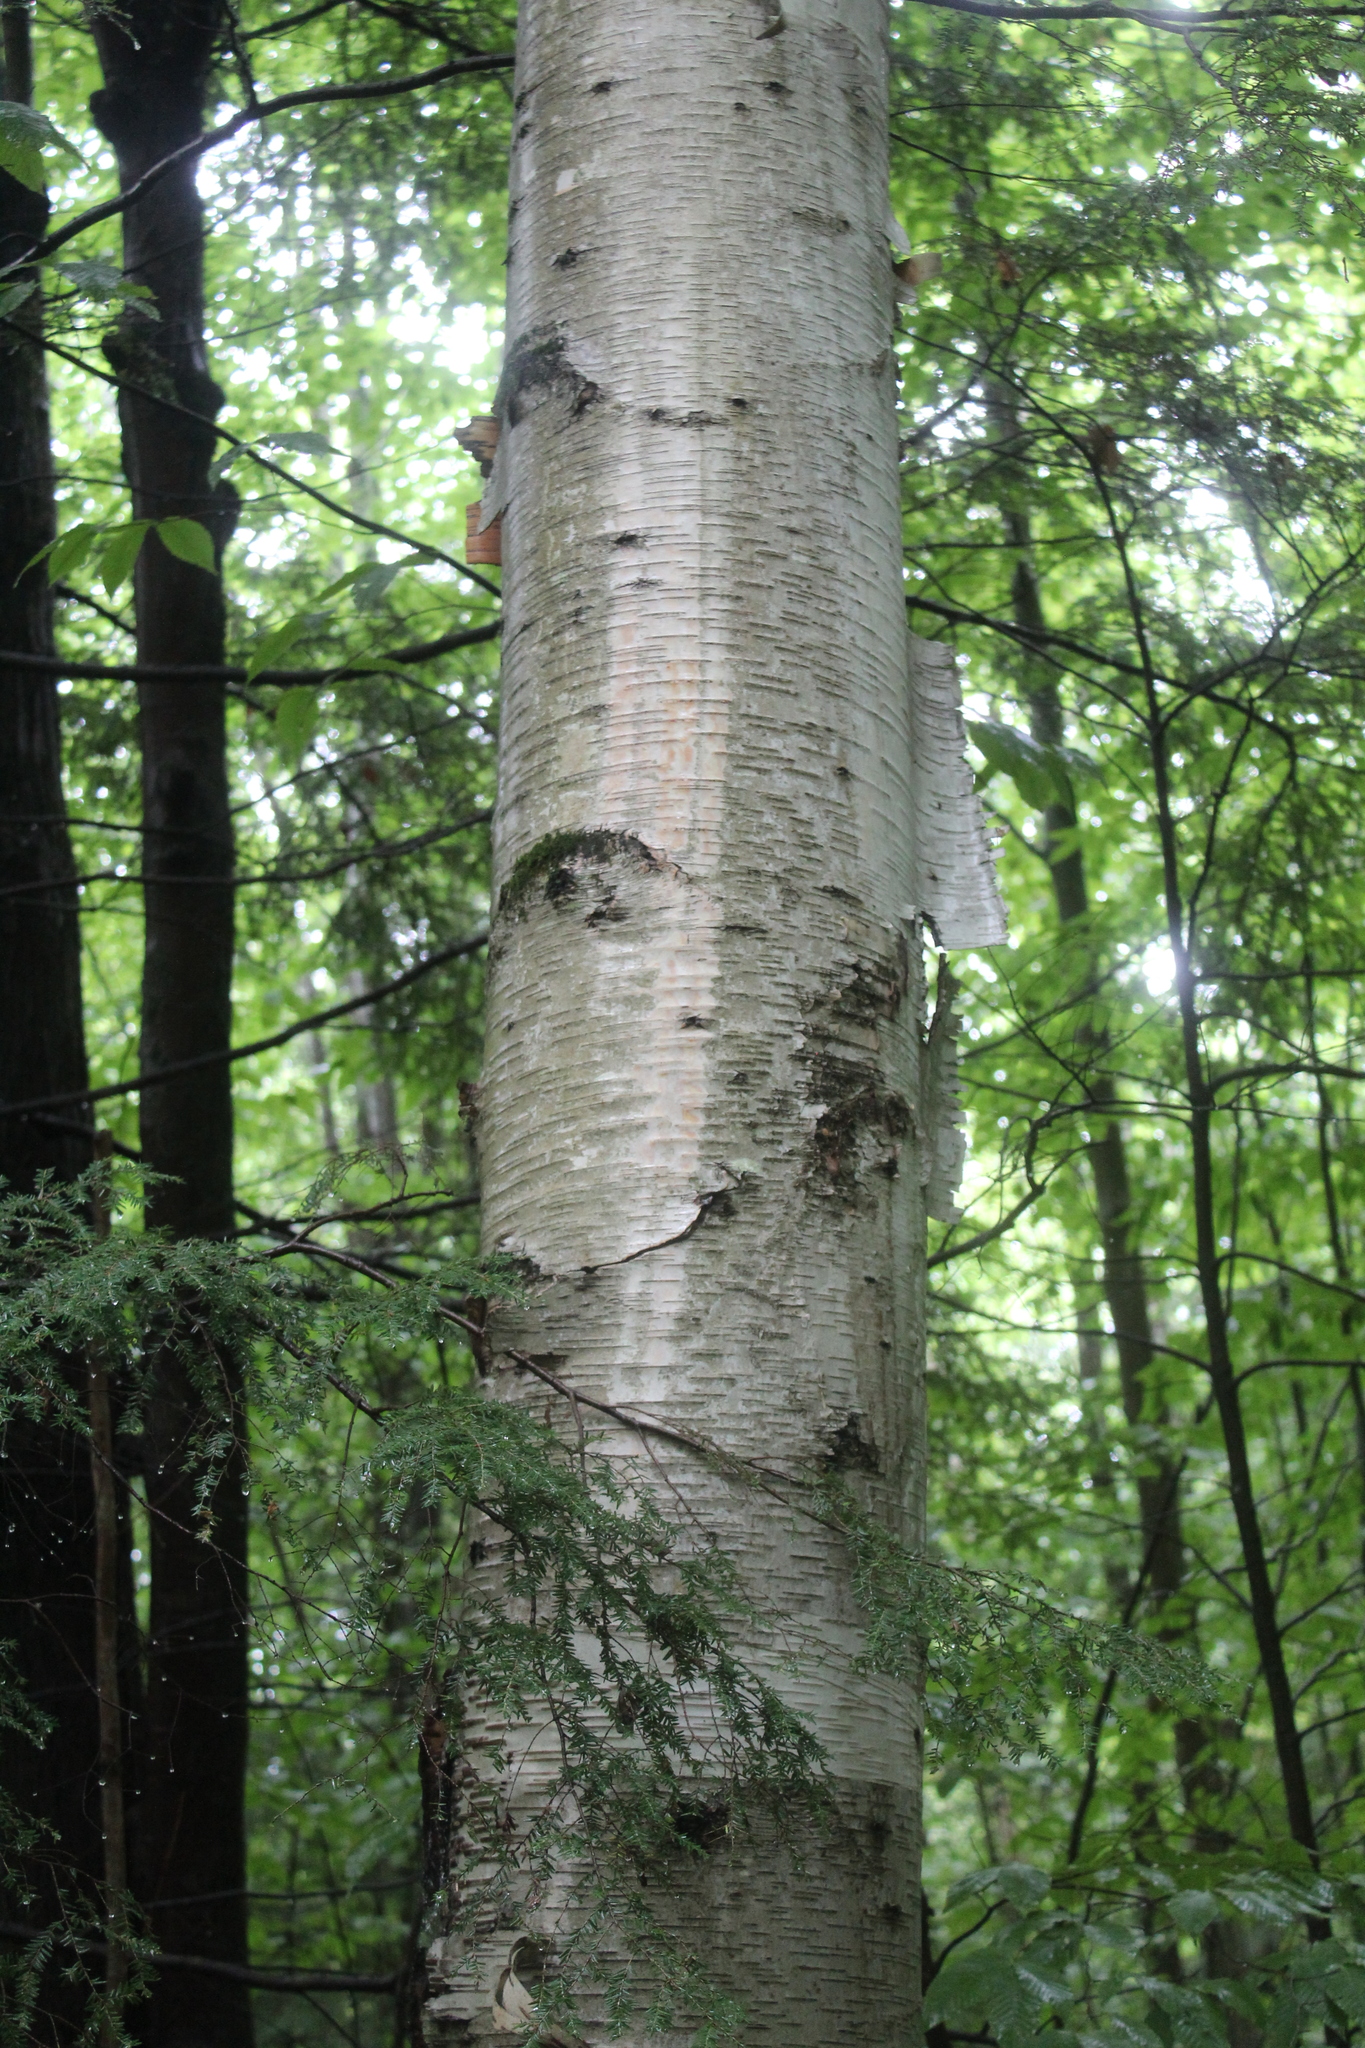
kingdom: Plantae
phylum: Tracheophyta
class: Magnoliopsida
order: Fagales
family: Betulaceae
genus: Betula
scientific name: Betula papyrifera
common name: Paper birch
